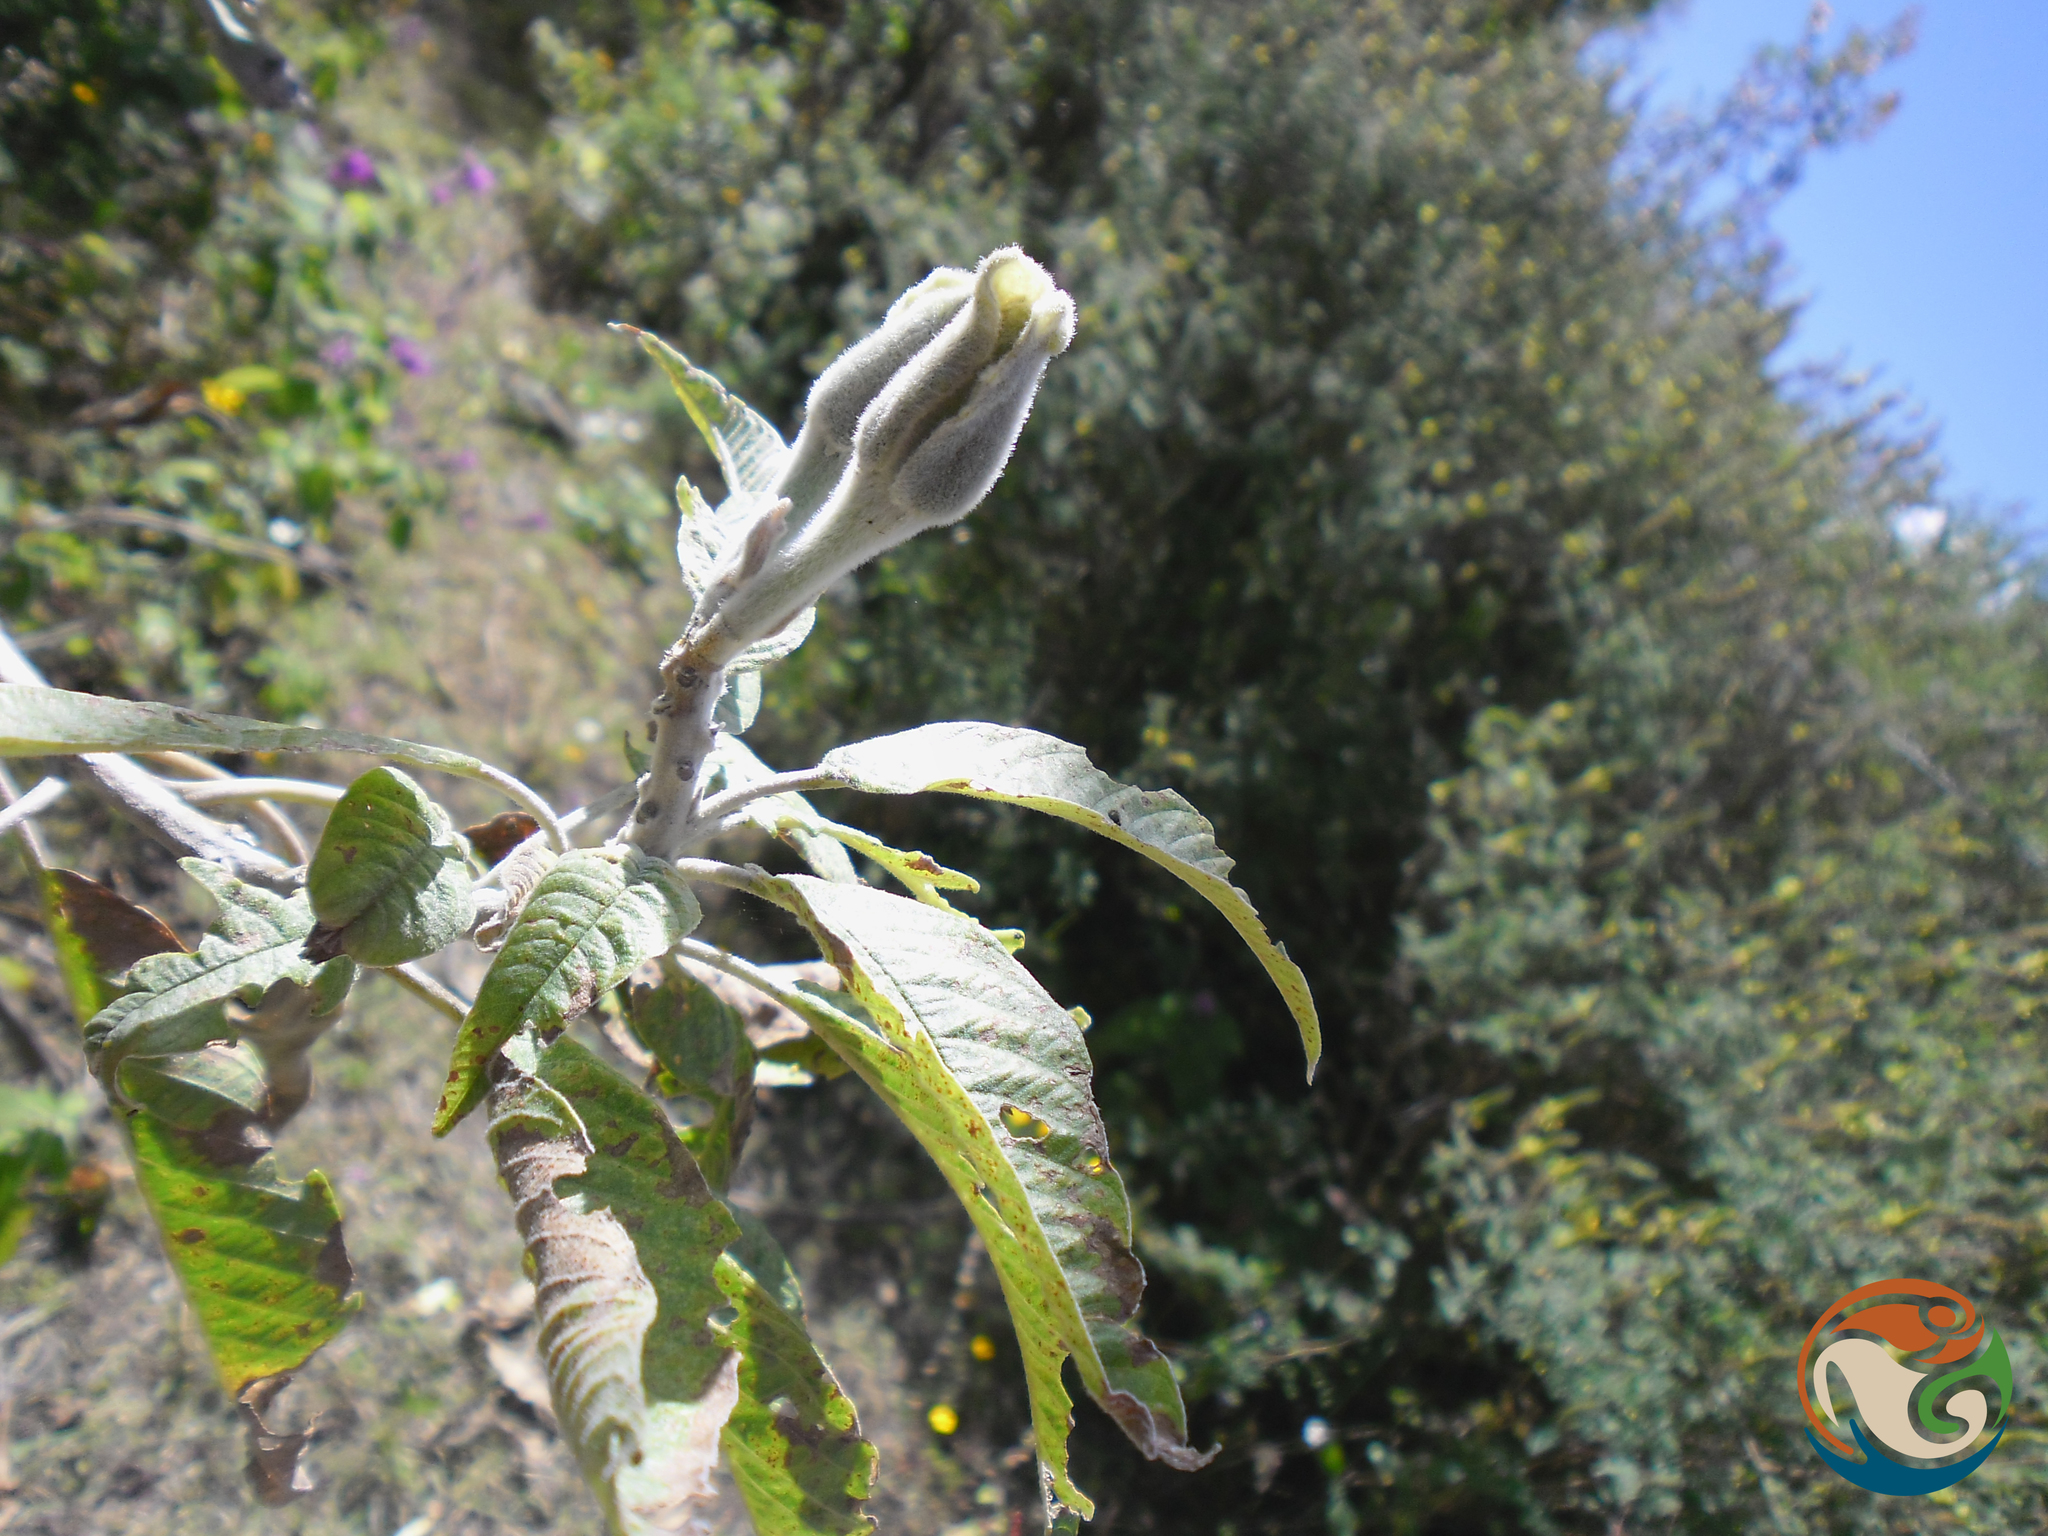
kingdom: Plantae
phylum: Tracheophyta
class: Magnoliopsida
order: Solanales
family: Convolvulaceae
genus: Ipomoea
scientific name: Ipomoea murucoides
